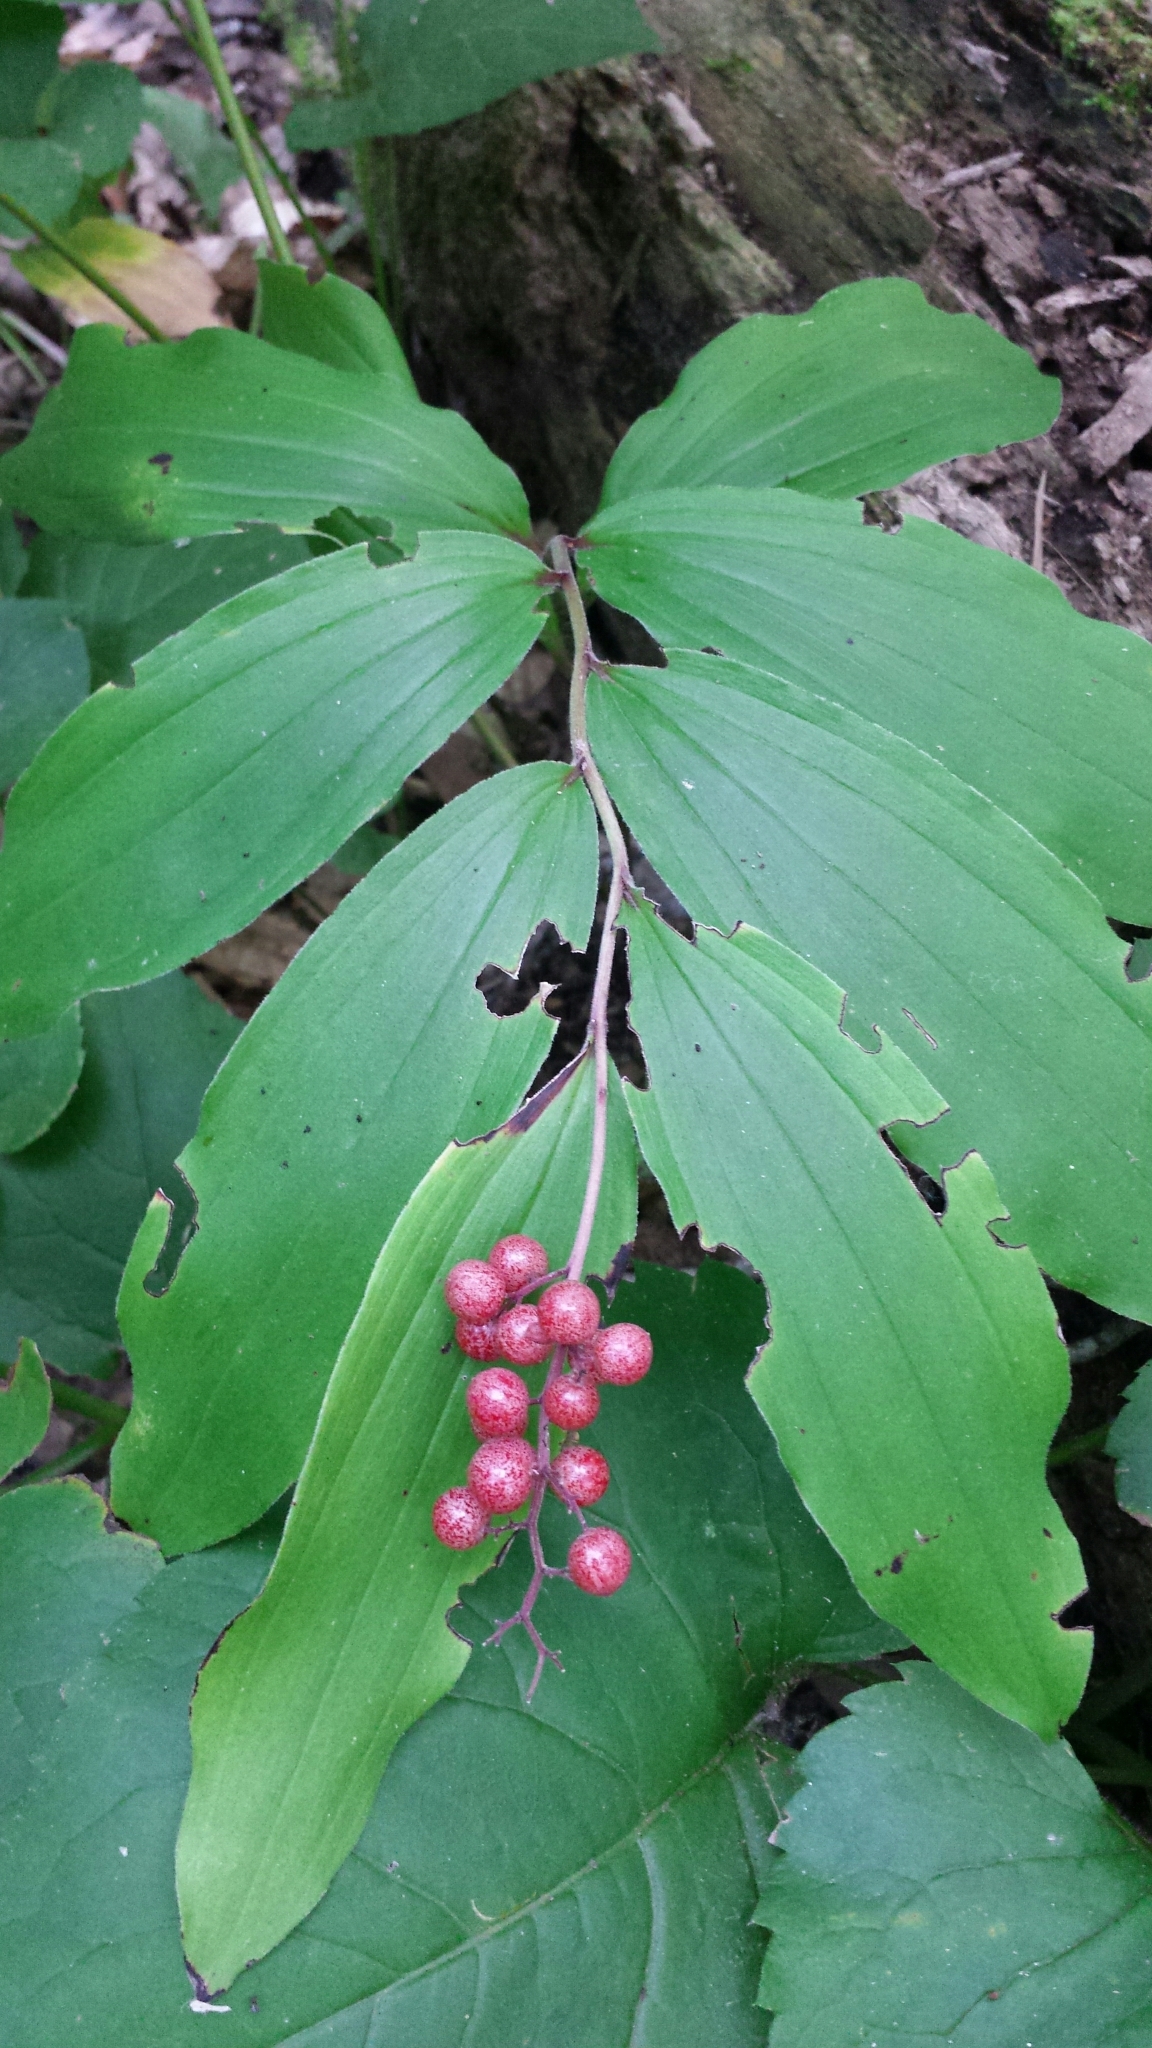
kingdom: Plantae
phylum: Tracheophyta
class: Liliopsida
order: Asparagales
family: Asparagaceae
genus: Maianthemum
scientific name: Maianthemum racemosum
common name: False spikenard
